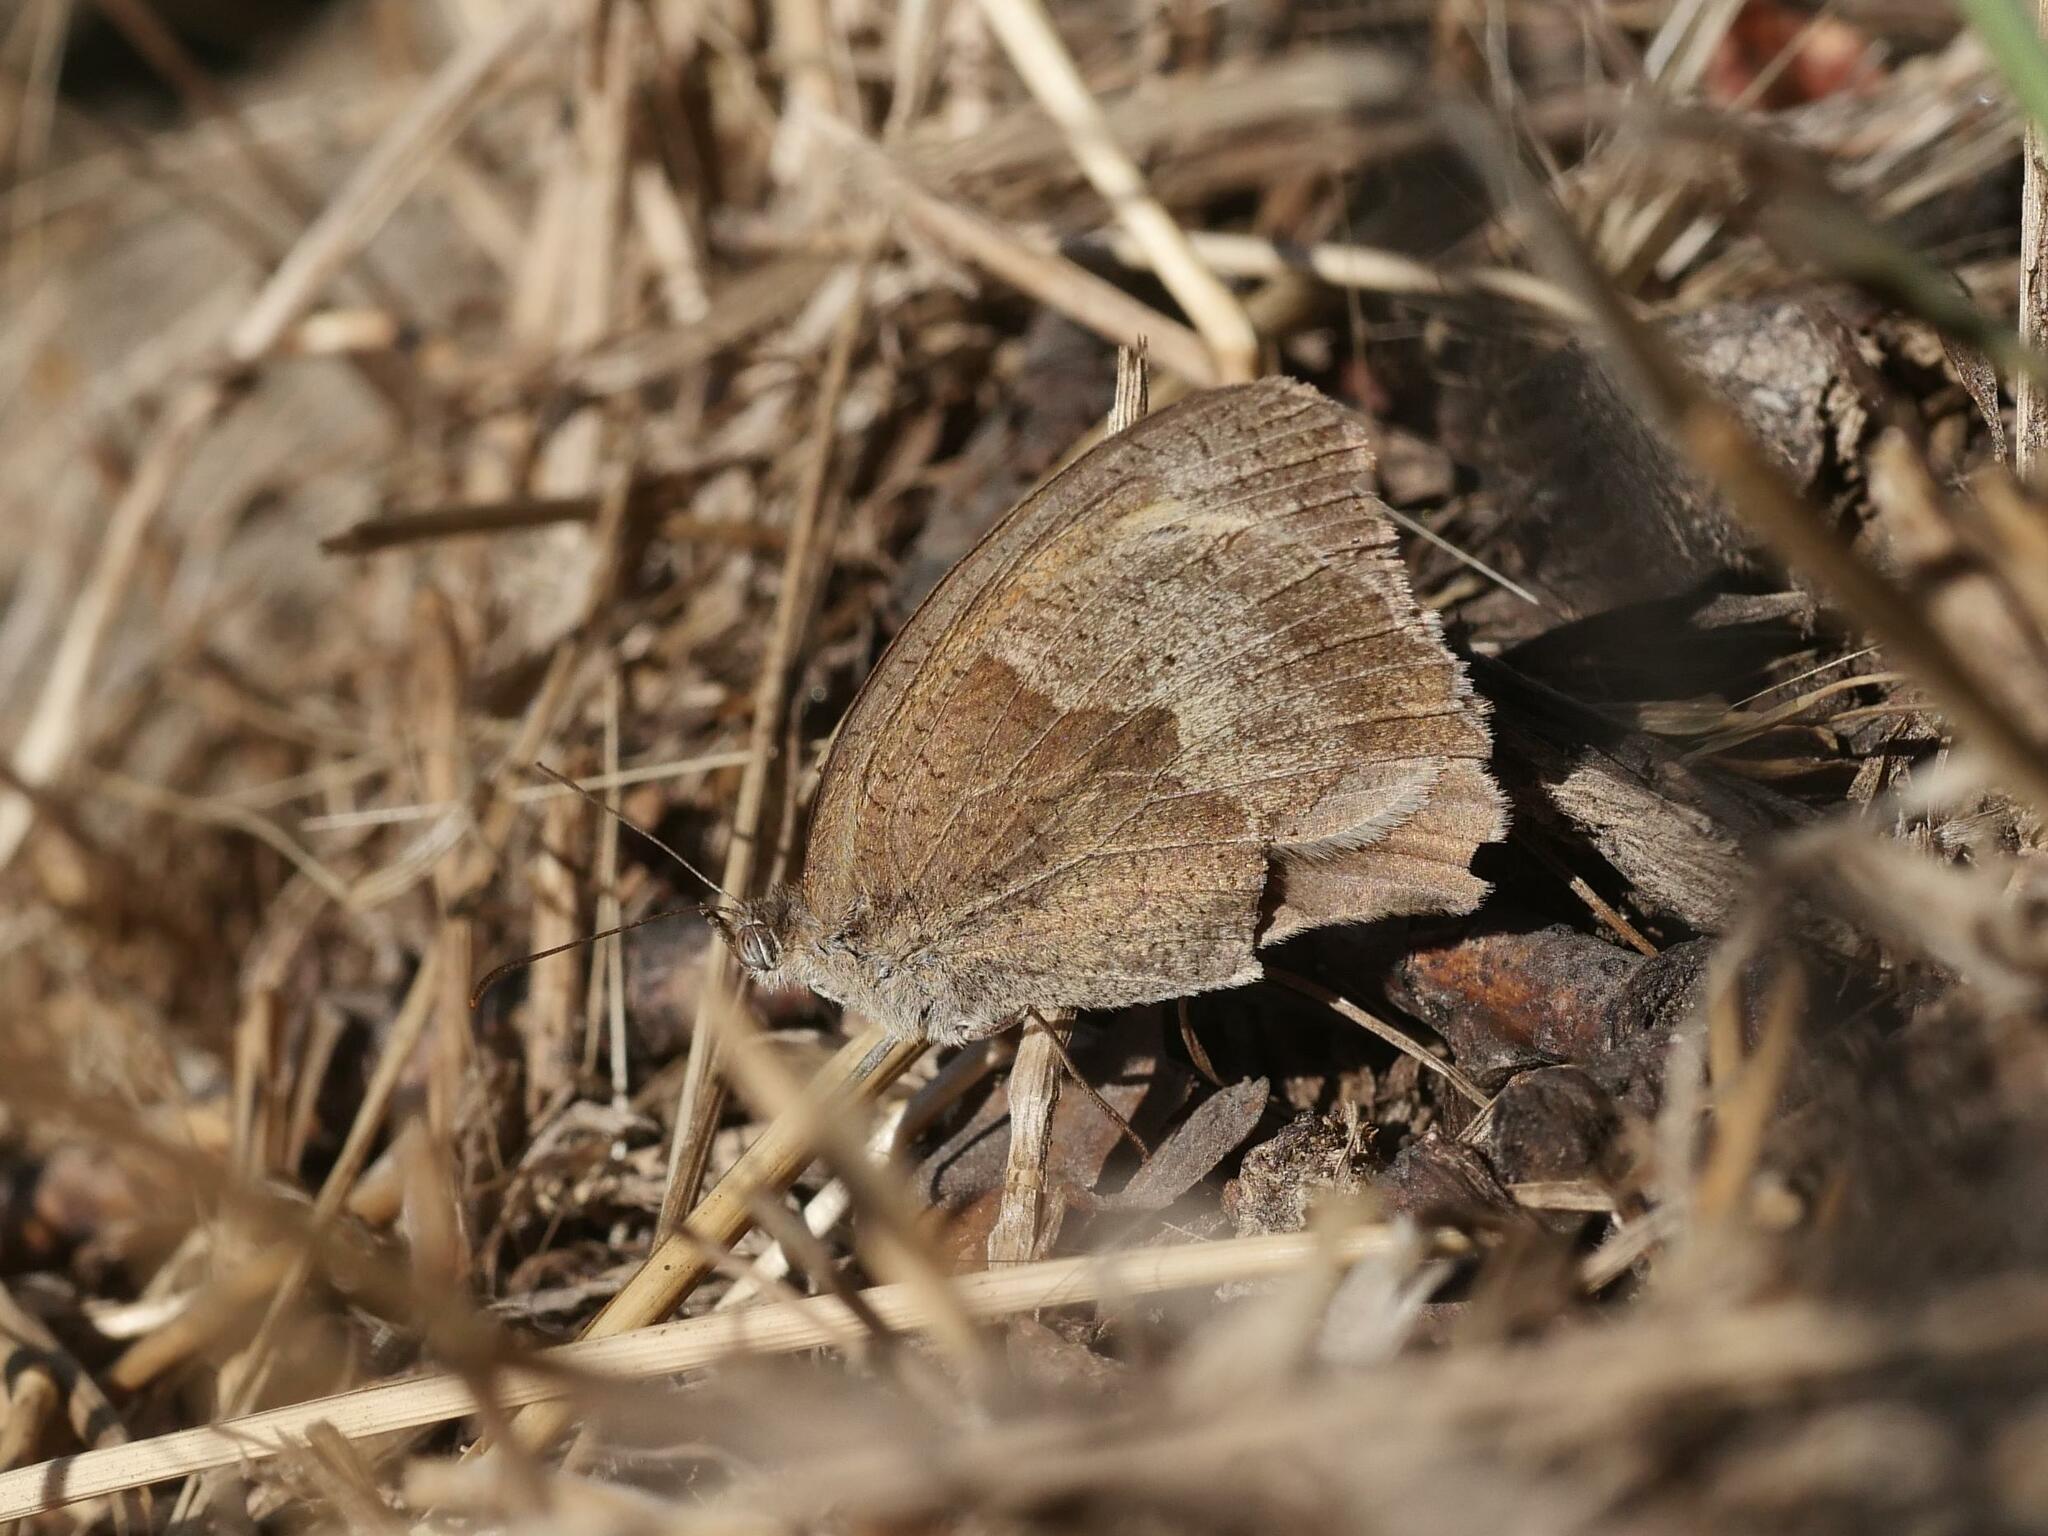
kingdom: Animalia
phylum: Arthropoda
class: Insecta
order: Lepidoptera
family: Nymphalidae
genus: Maniola
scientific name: Maniola jurtina
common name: Meadow brown
